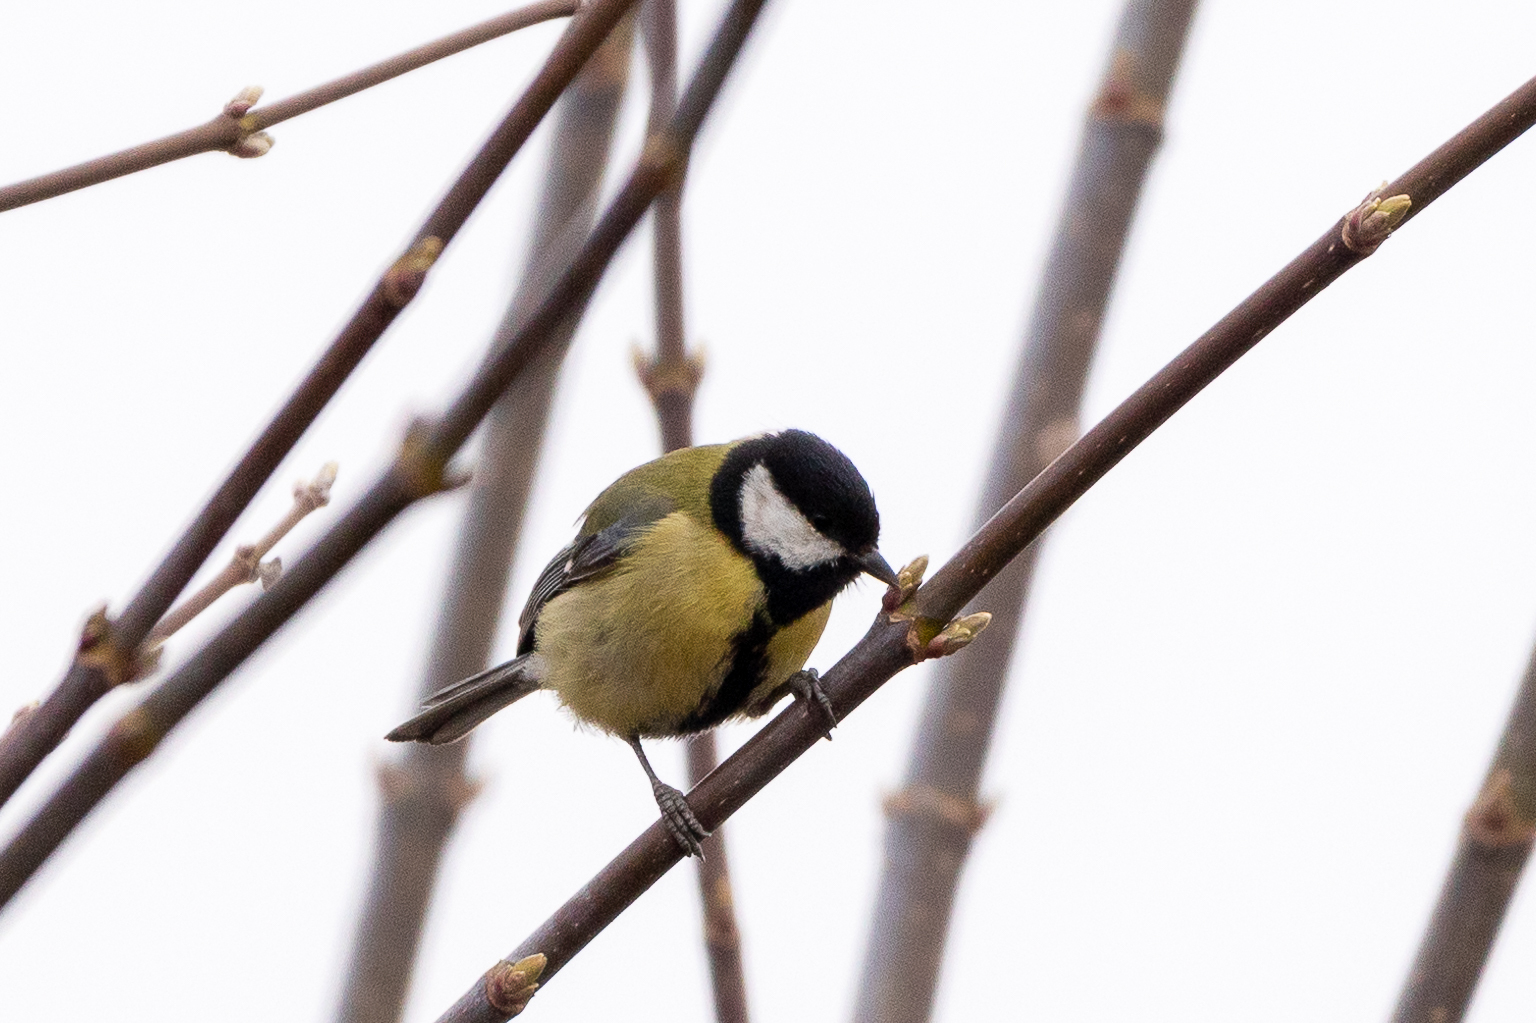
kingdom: Animalia
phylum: Chordata
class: Aves
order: Passeriformes
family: Paridae
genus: Parus
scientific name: Parus major
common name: Great tit
